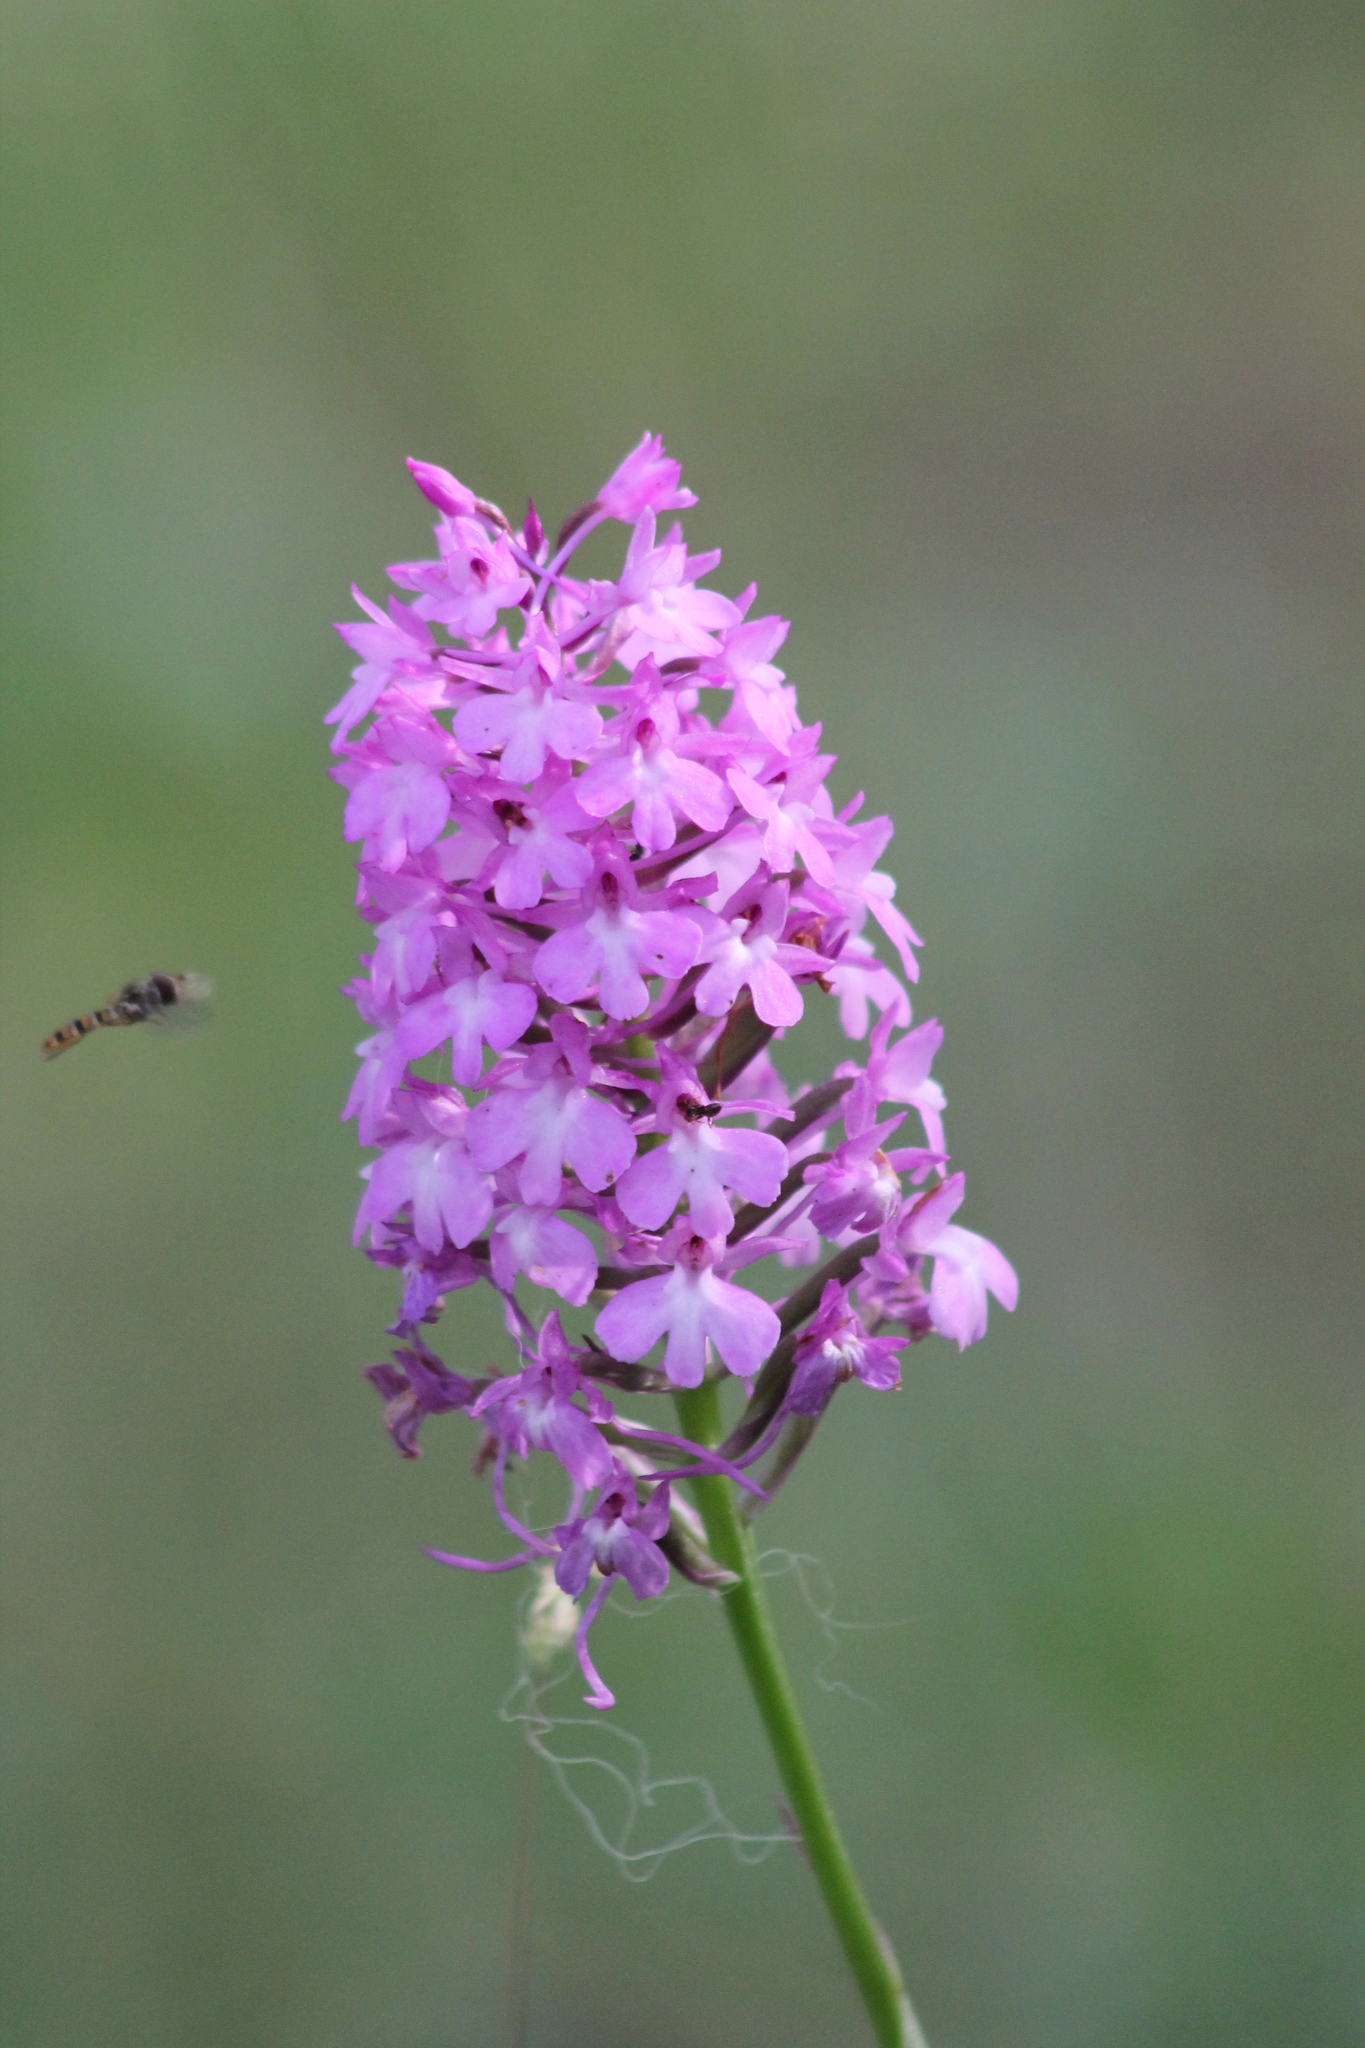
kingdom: Plantae
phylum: Tracheophyta
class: Liliopsida
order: Asparagales
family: Orchidaceae
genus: Anacamptis
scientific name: Anacamptis pyramidalis
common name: Pyramidal orchid
